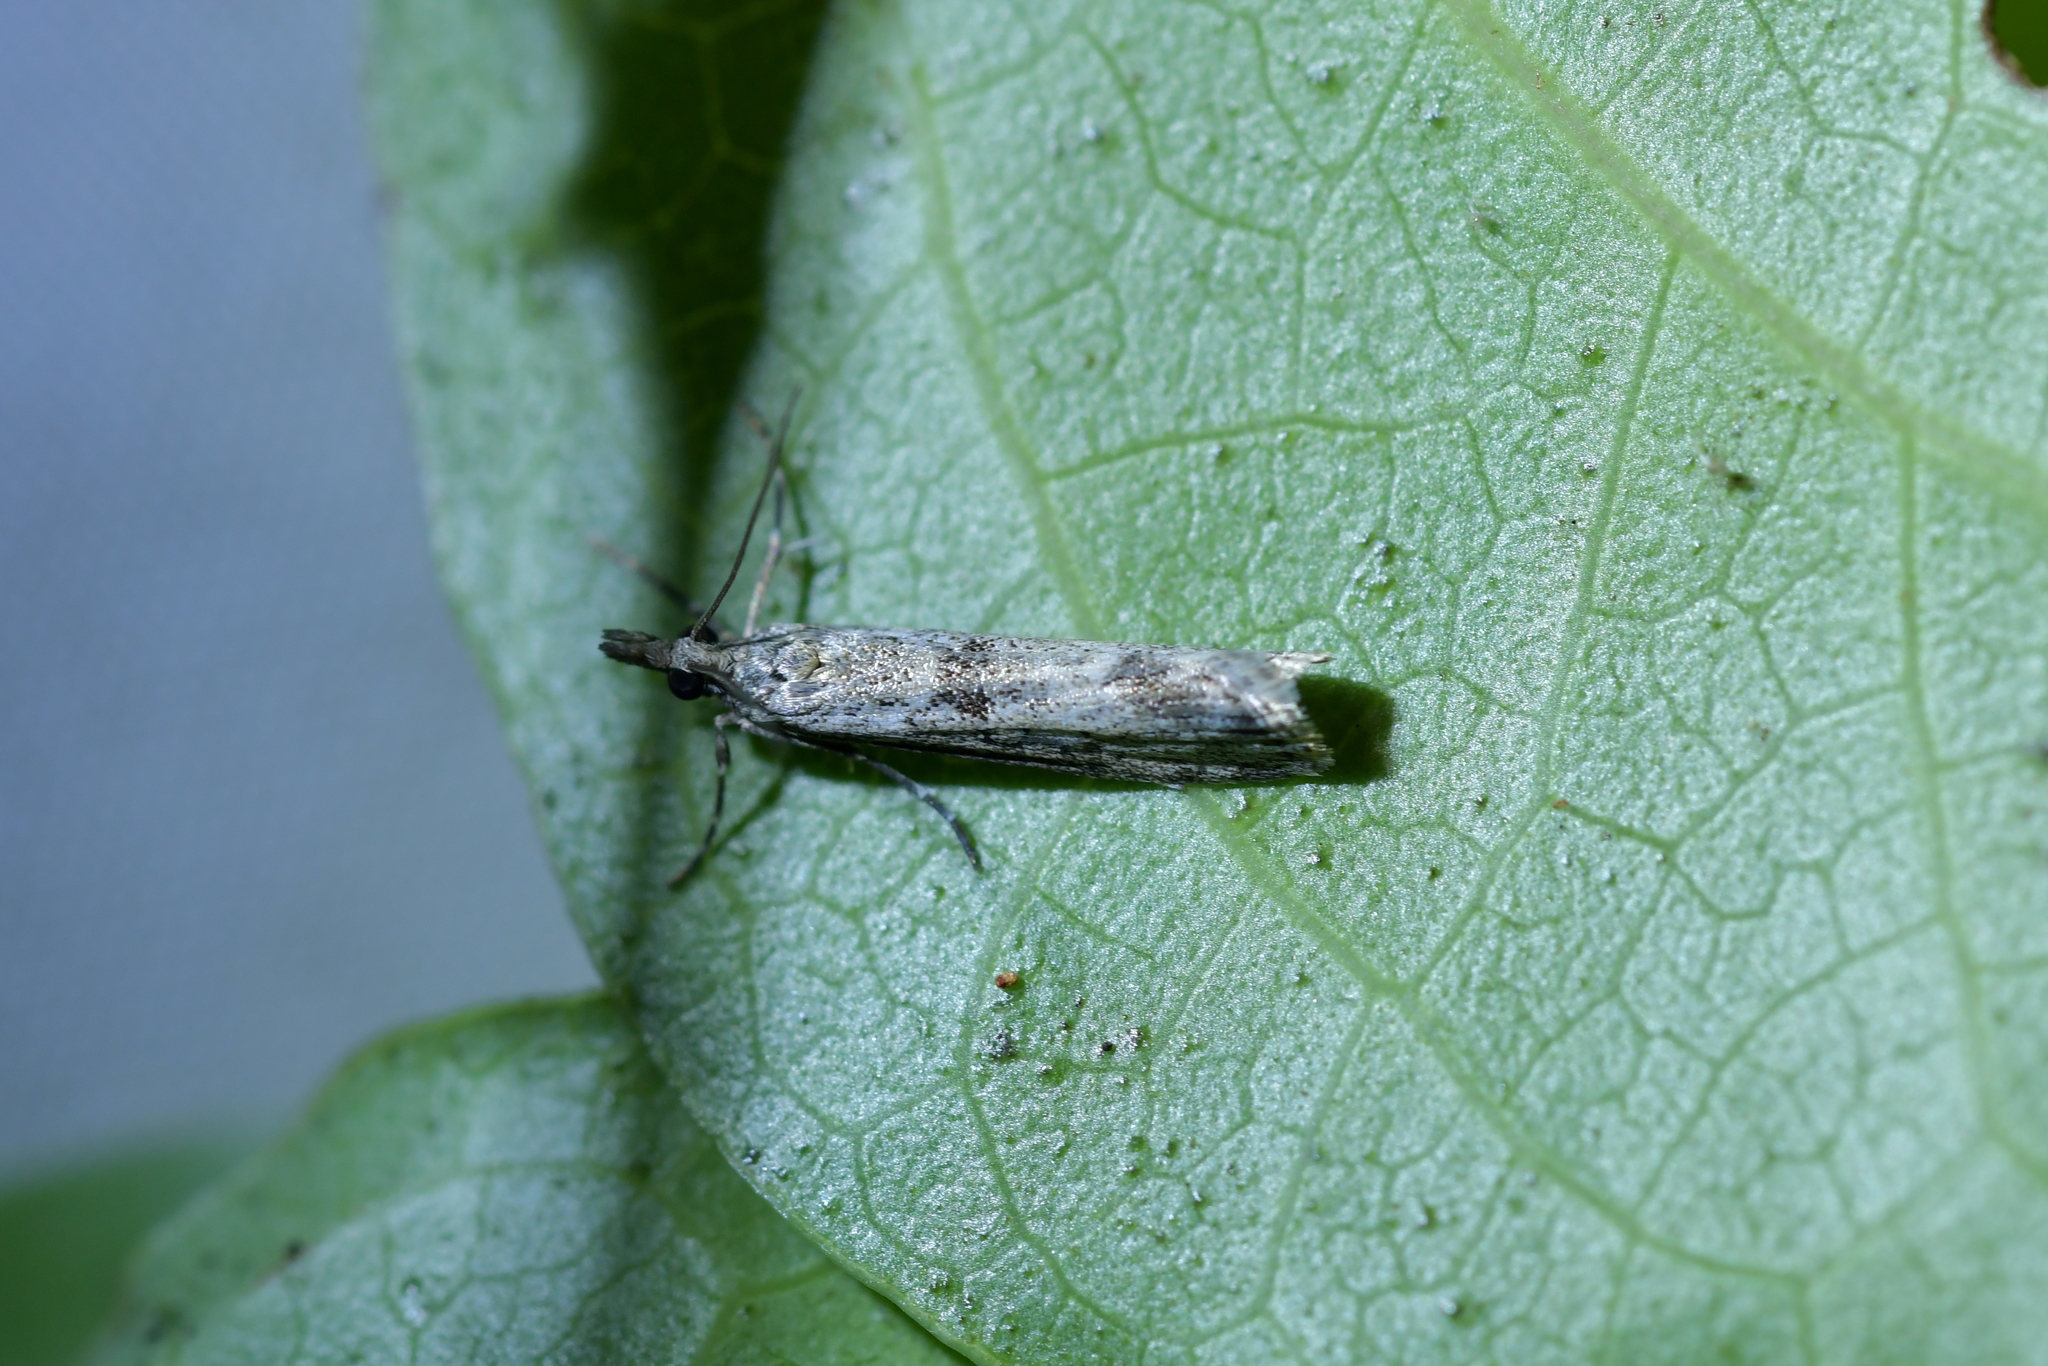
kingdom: Animalia
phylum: Arthropoda
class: Insecta
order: Lepidoptera
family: Crambidae
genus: Eudonia
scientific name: Eudonia leptalea
